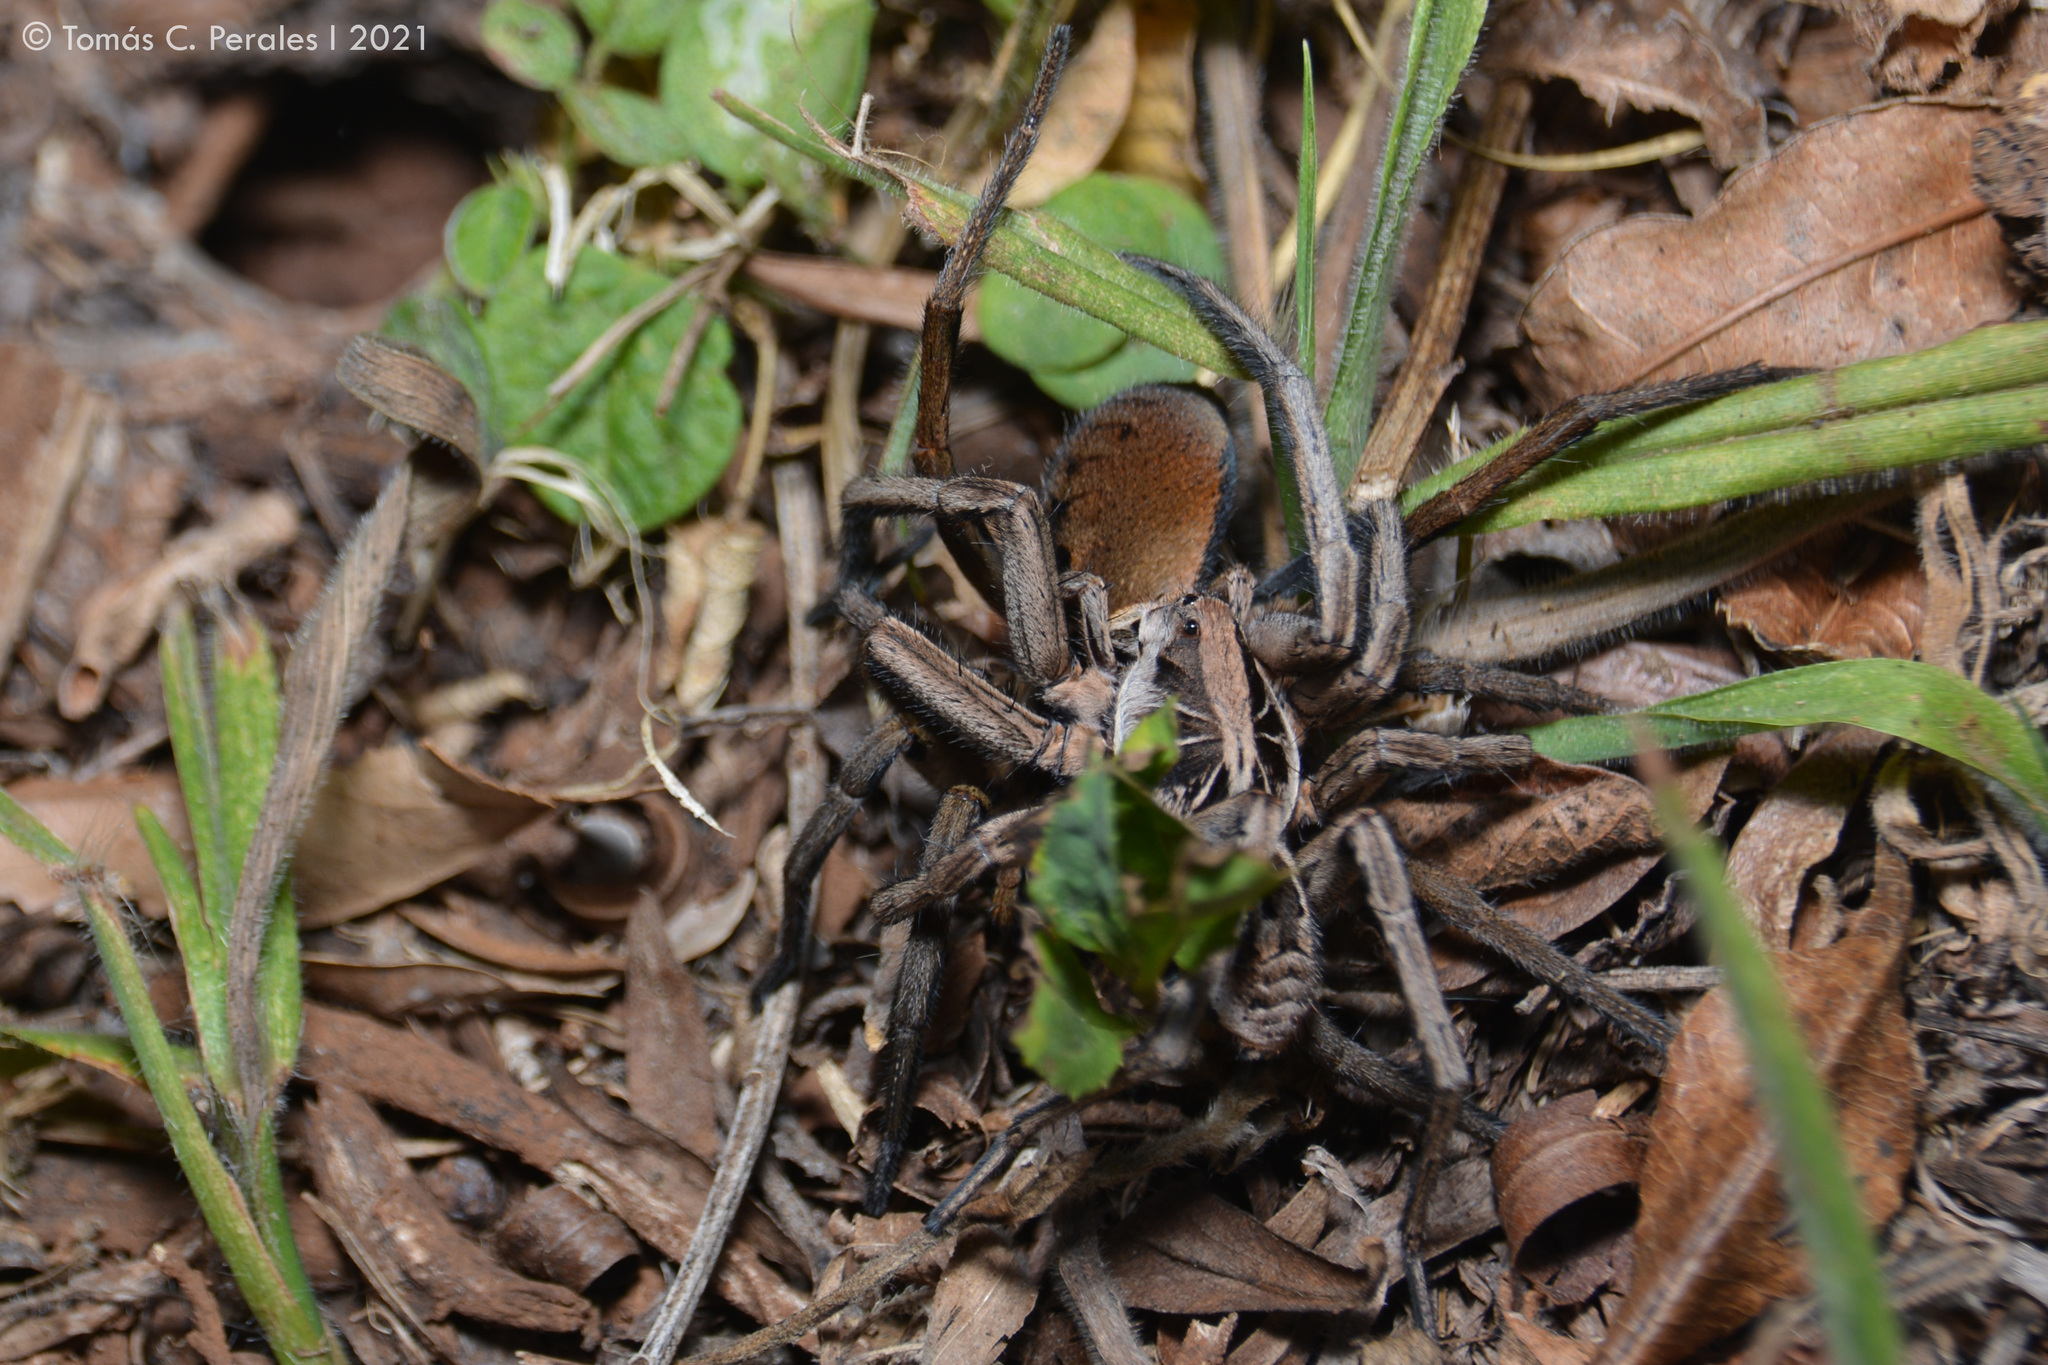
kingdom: Animalia
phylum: Arthropoda
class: Arachnida
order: Araneae
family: Lycosidae
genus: Lycosa
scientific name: Lycosa erythrognatha
